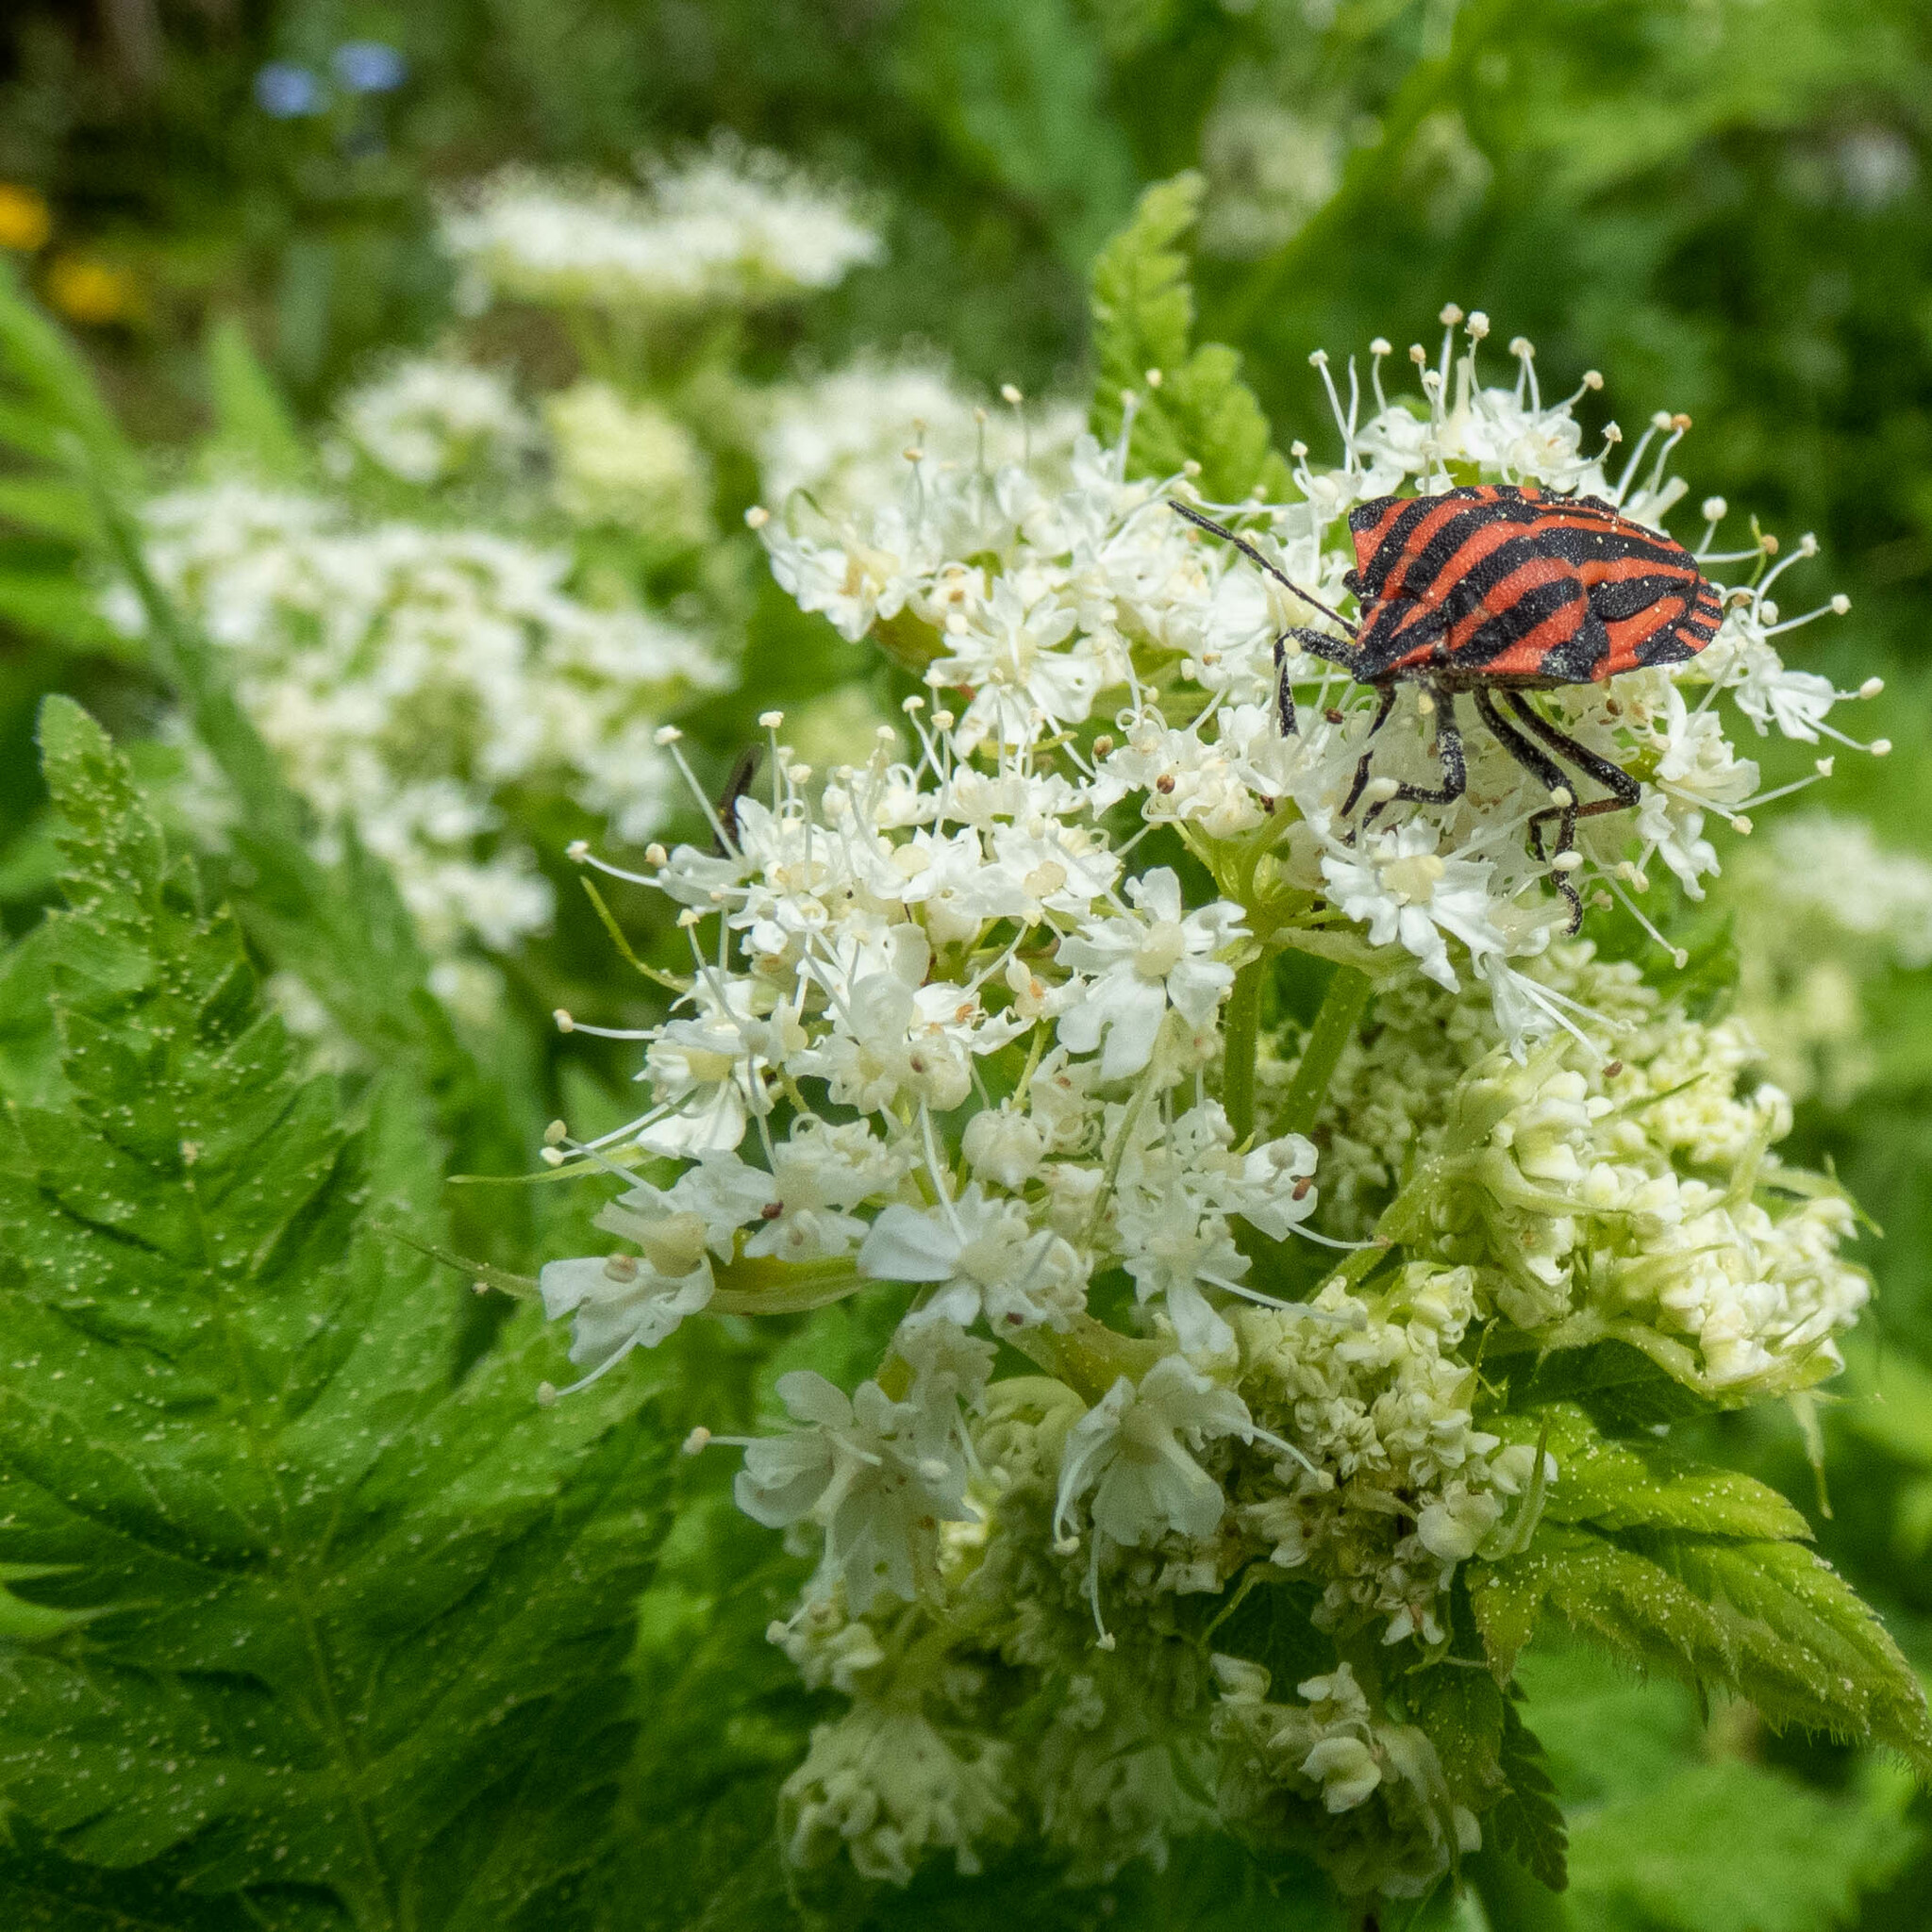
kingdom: Animalia
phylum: Arthropoda
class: Insecta
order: Hemiptera
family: Pentatomidae
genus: Graphosoma
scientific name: Graphosoma italicum
